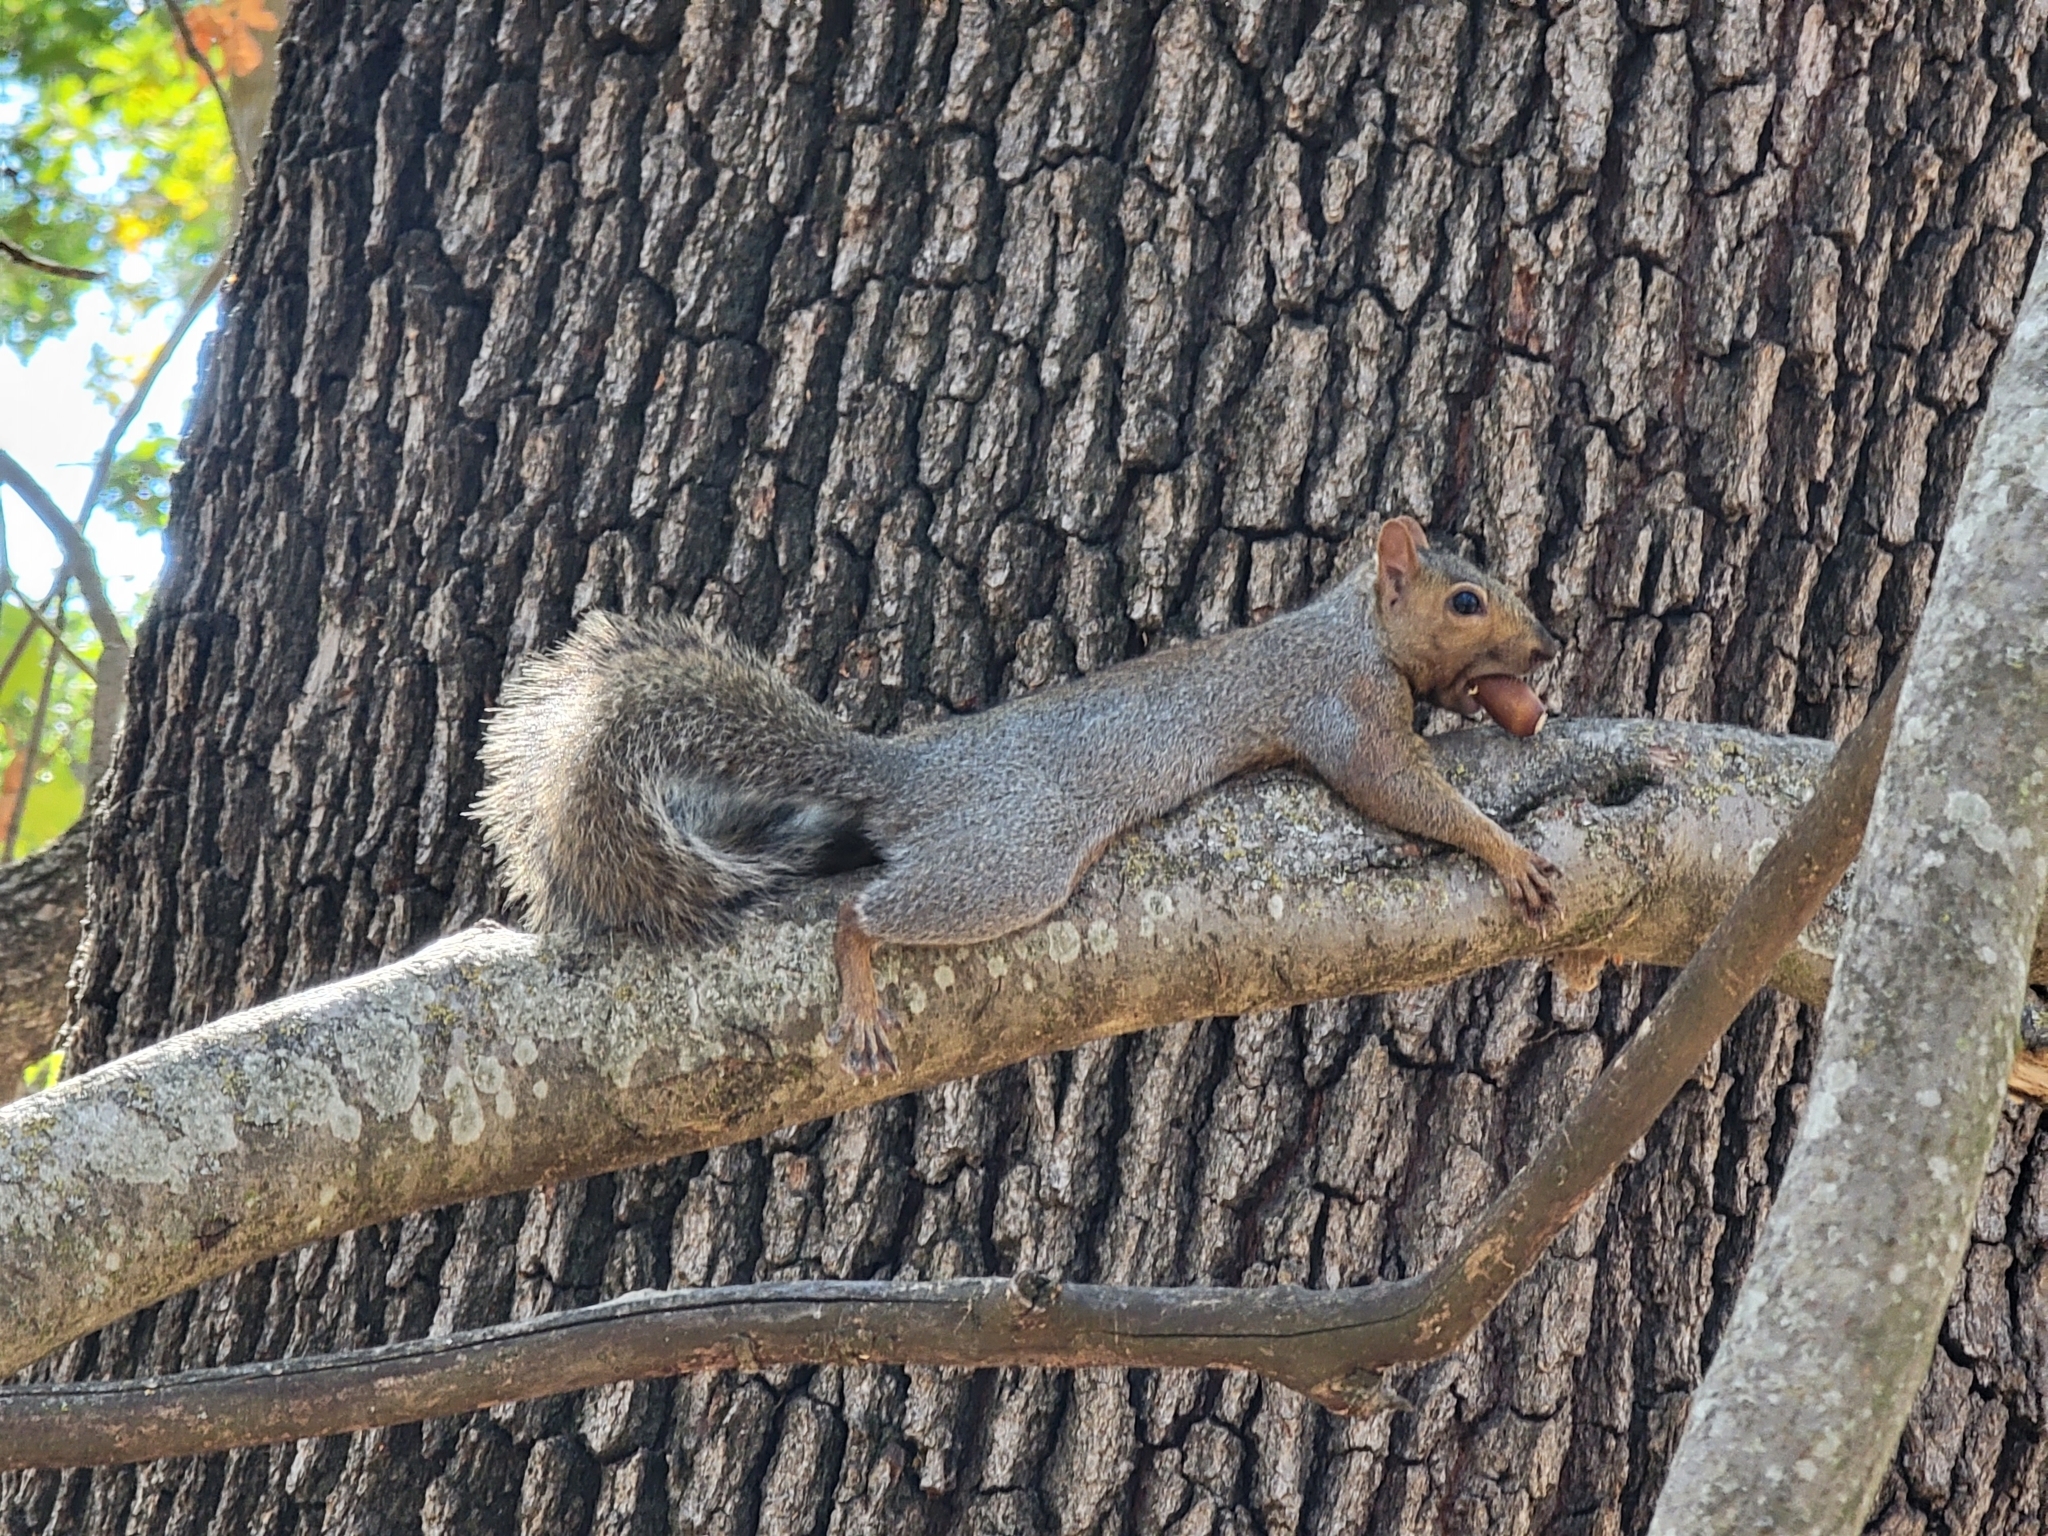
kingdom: Animalia
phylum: Chordata
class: Mammalia
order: Rodentia
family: Sciuridae
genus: Sciurus
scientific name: Sciurus carolinensis
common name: Eastern gray squirrel
